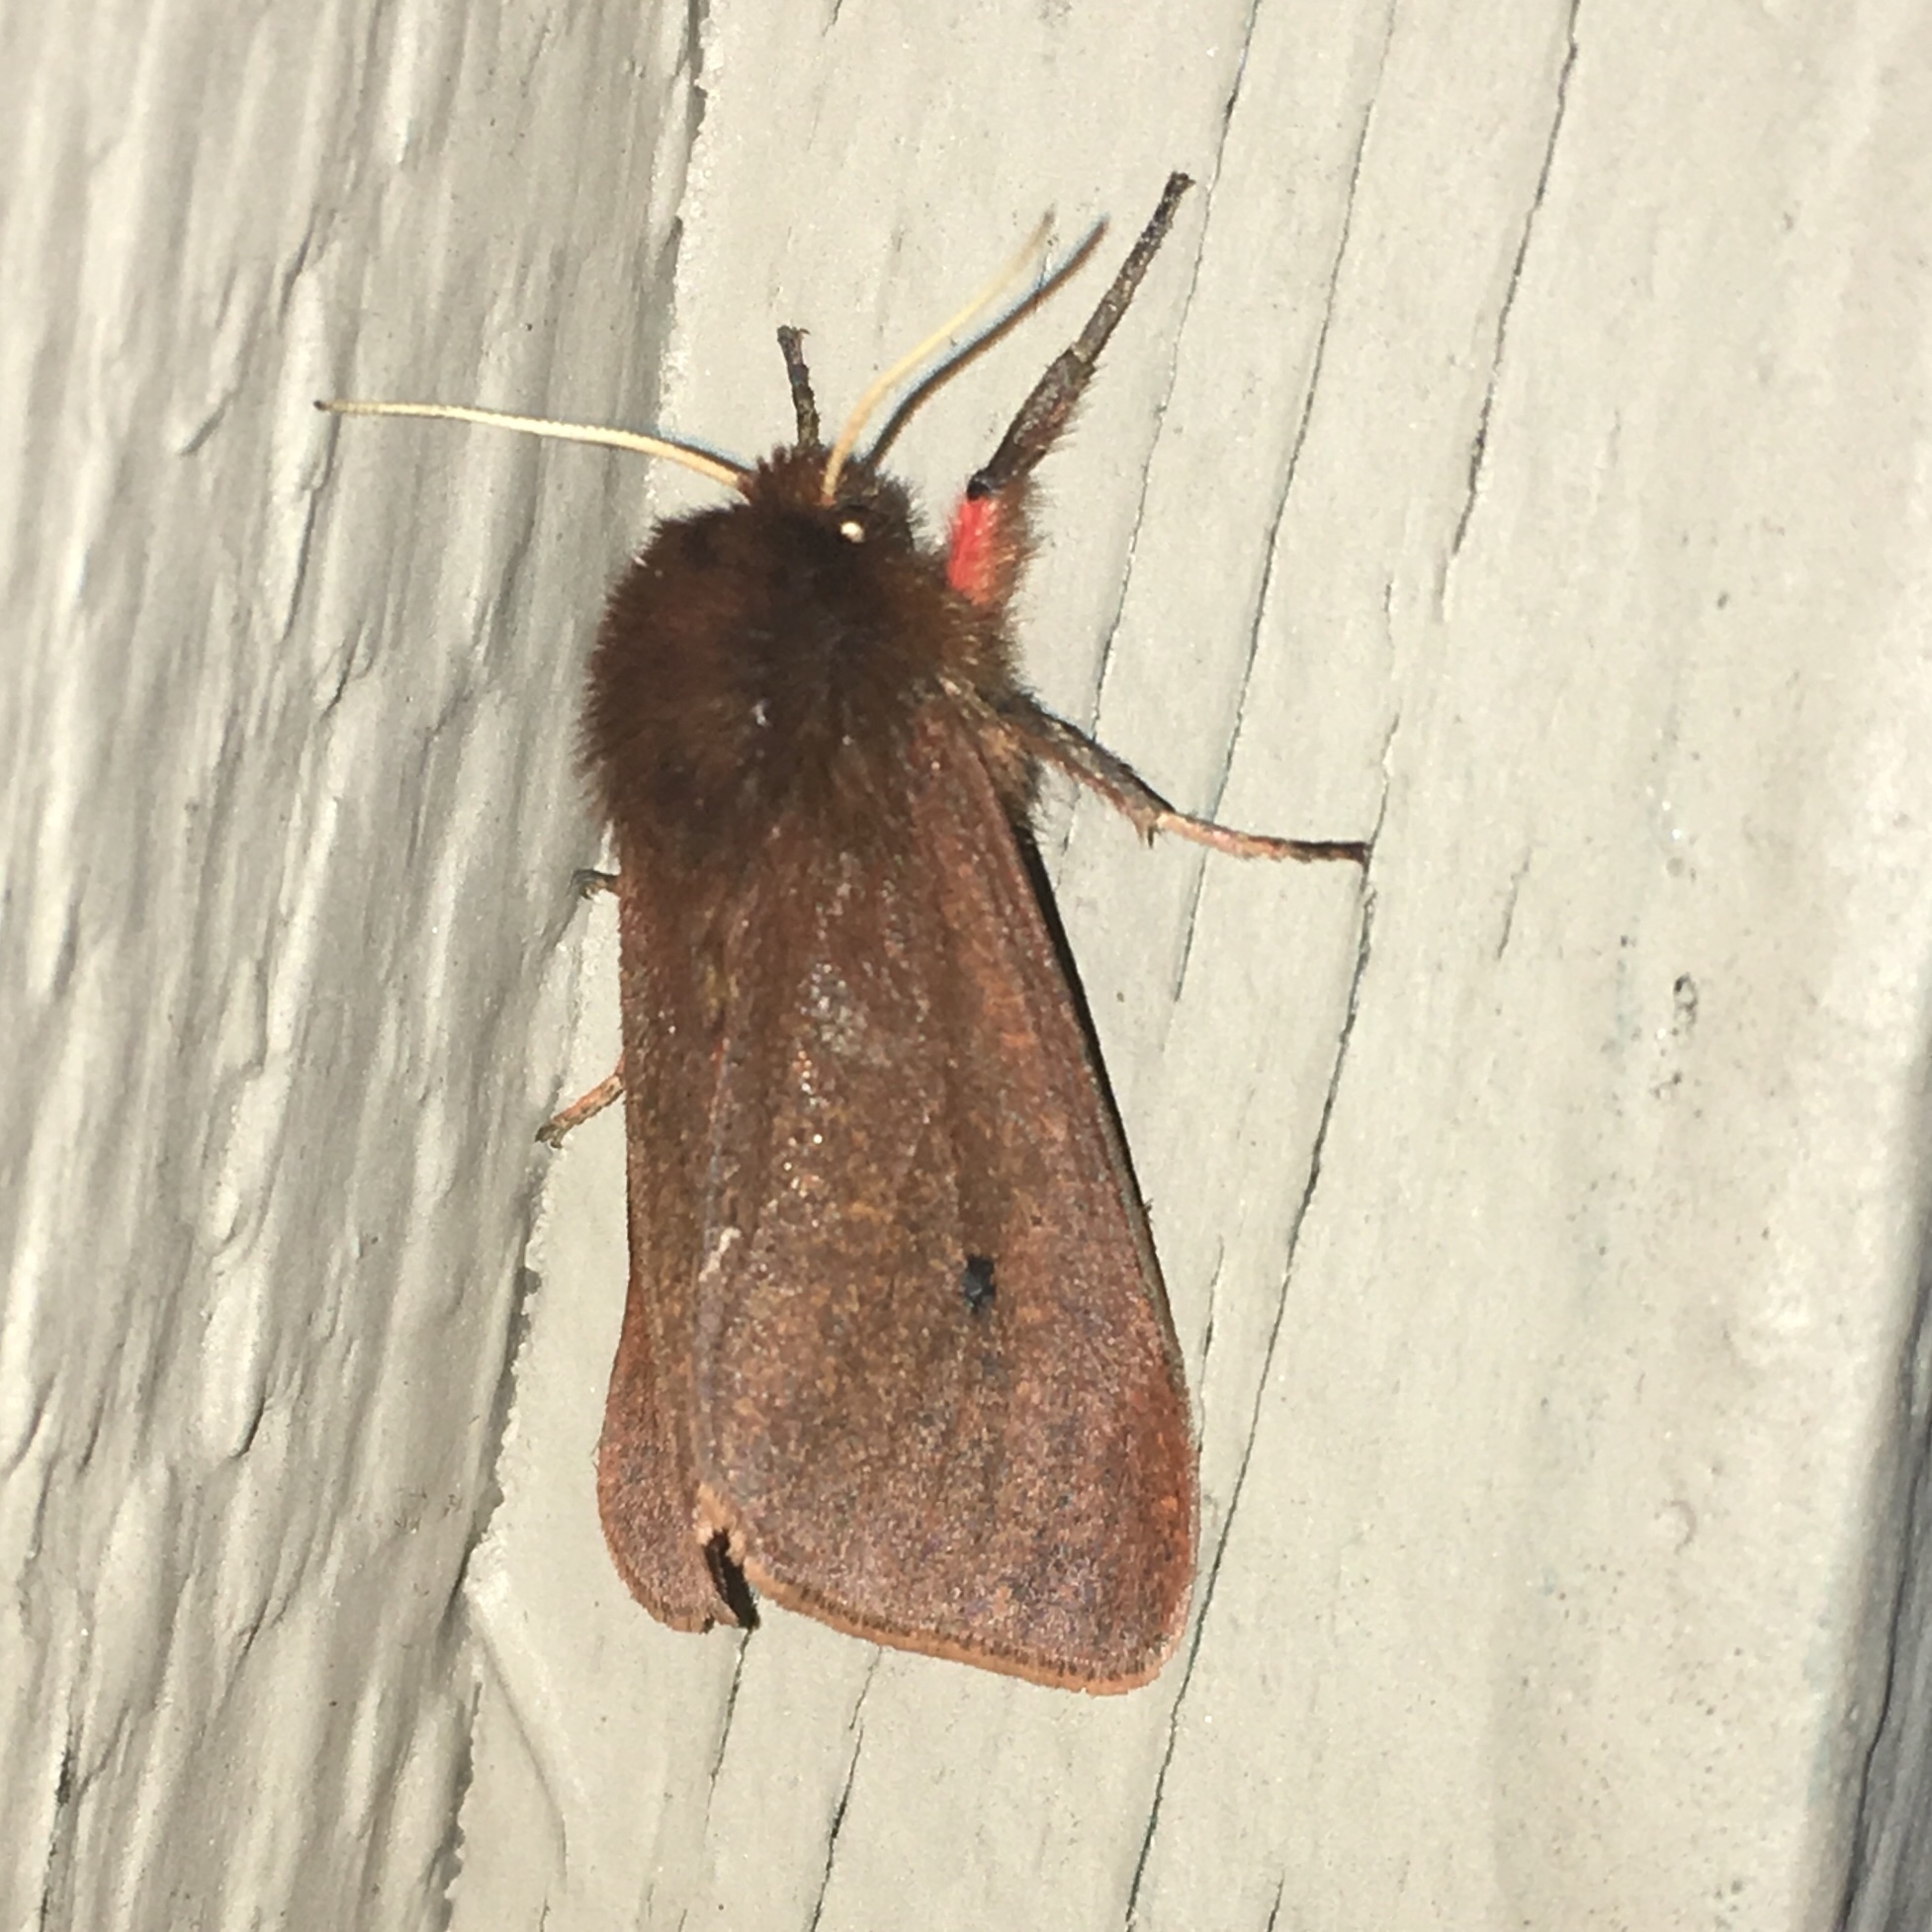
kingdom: Animalia
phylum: Arthropoda
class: Insecta
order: Lepidoptera
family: Erebidae
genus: Phragmatobia
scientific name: Phragmatobia fuliginosa
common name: Ruby tiger
